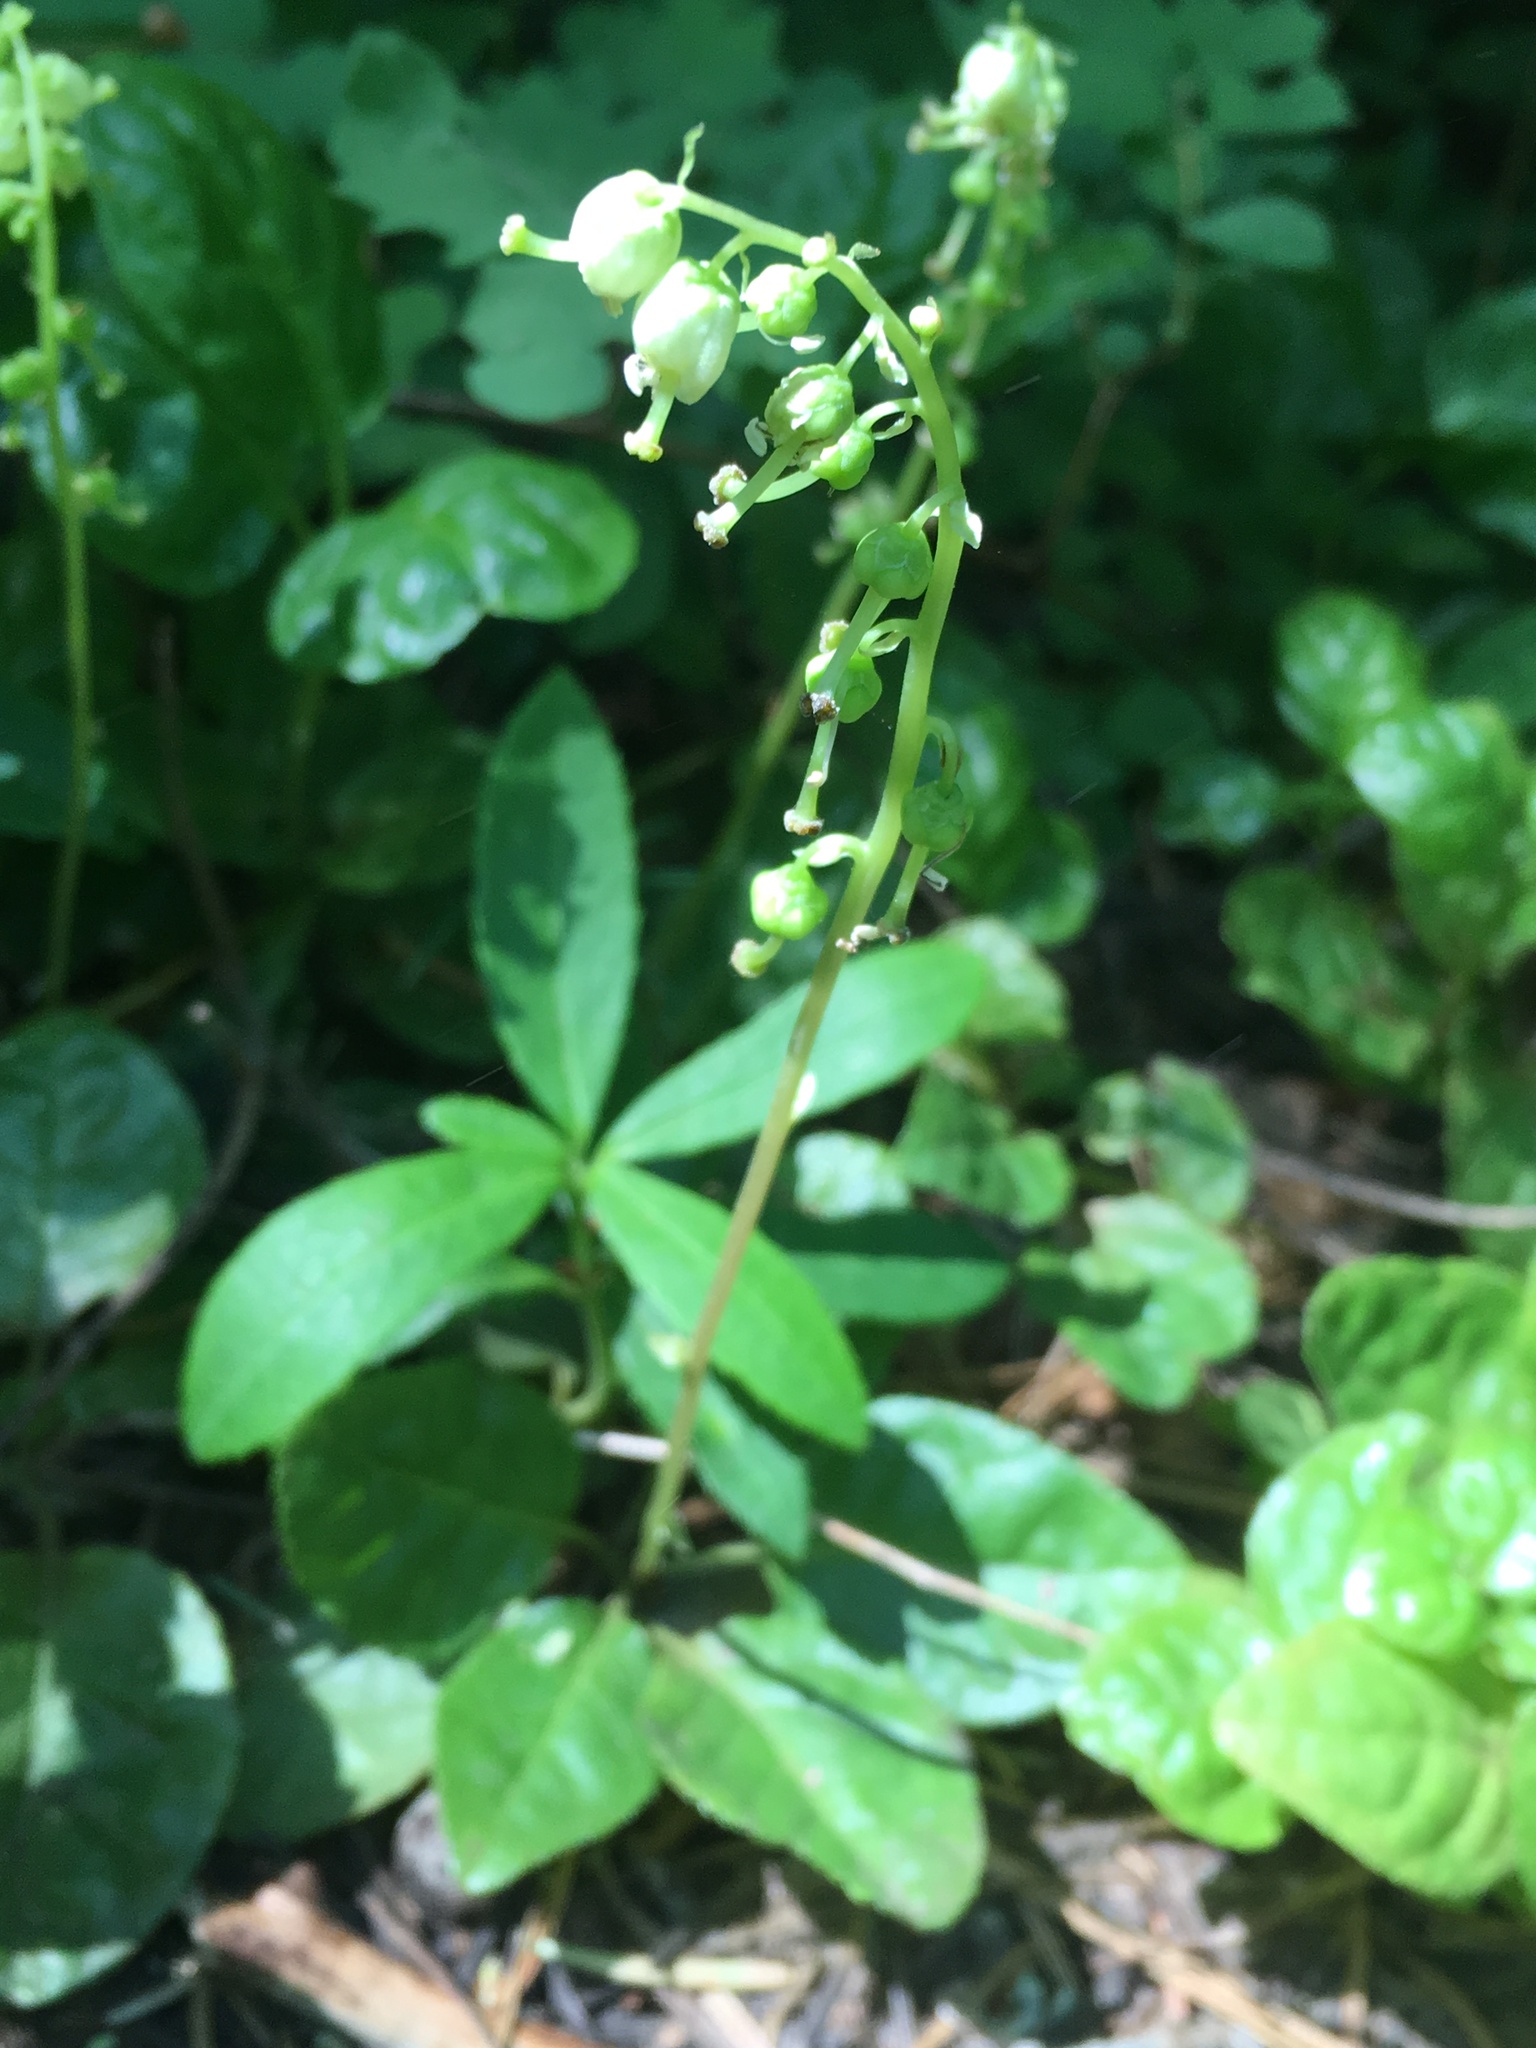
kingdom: Plantae
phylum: Tracheophyta
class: Magnoliopsida
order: Ericales
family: Ericaceae
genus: Orthilia
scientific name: Orthilia secunda
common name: One-sided orthilia
